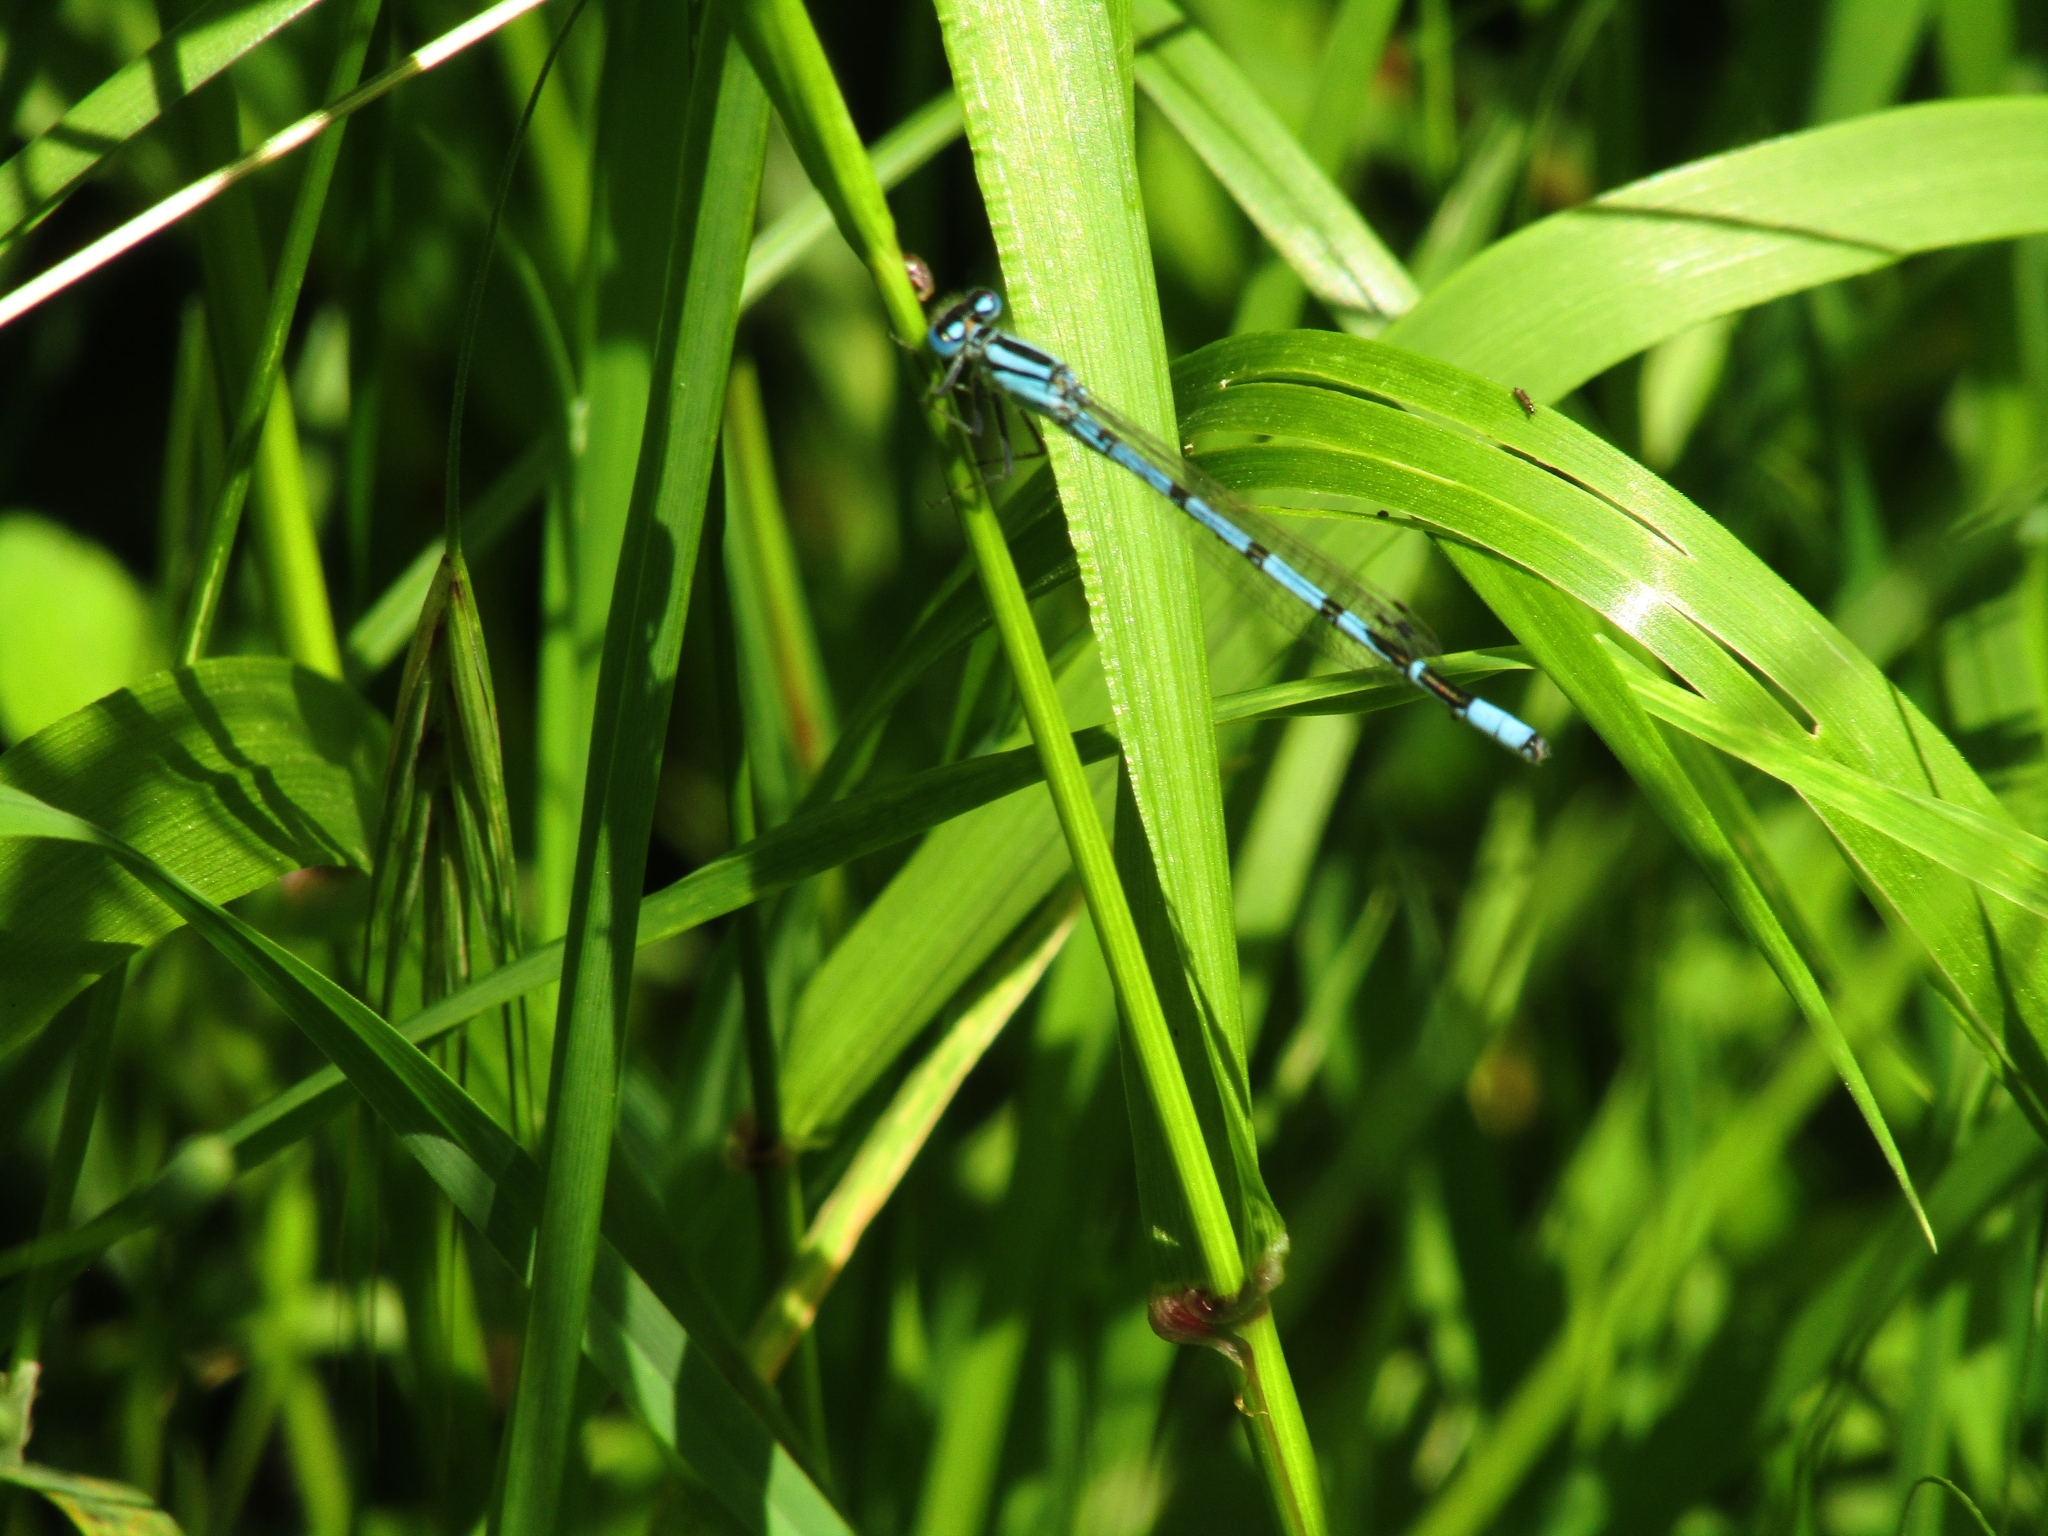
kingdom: Animalia
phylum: Arthropoda
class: Insecta
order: Odonata
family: Coenagrionidae
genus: Enallagma
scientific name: Enallagma cyathigerum
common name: Common blue damselfly
